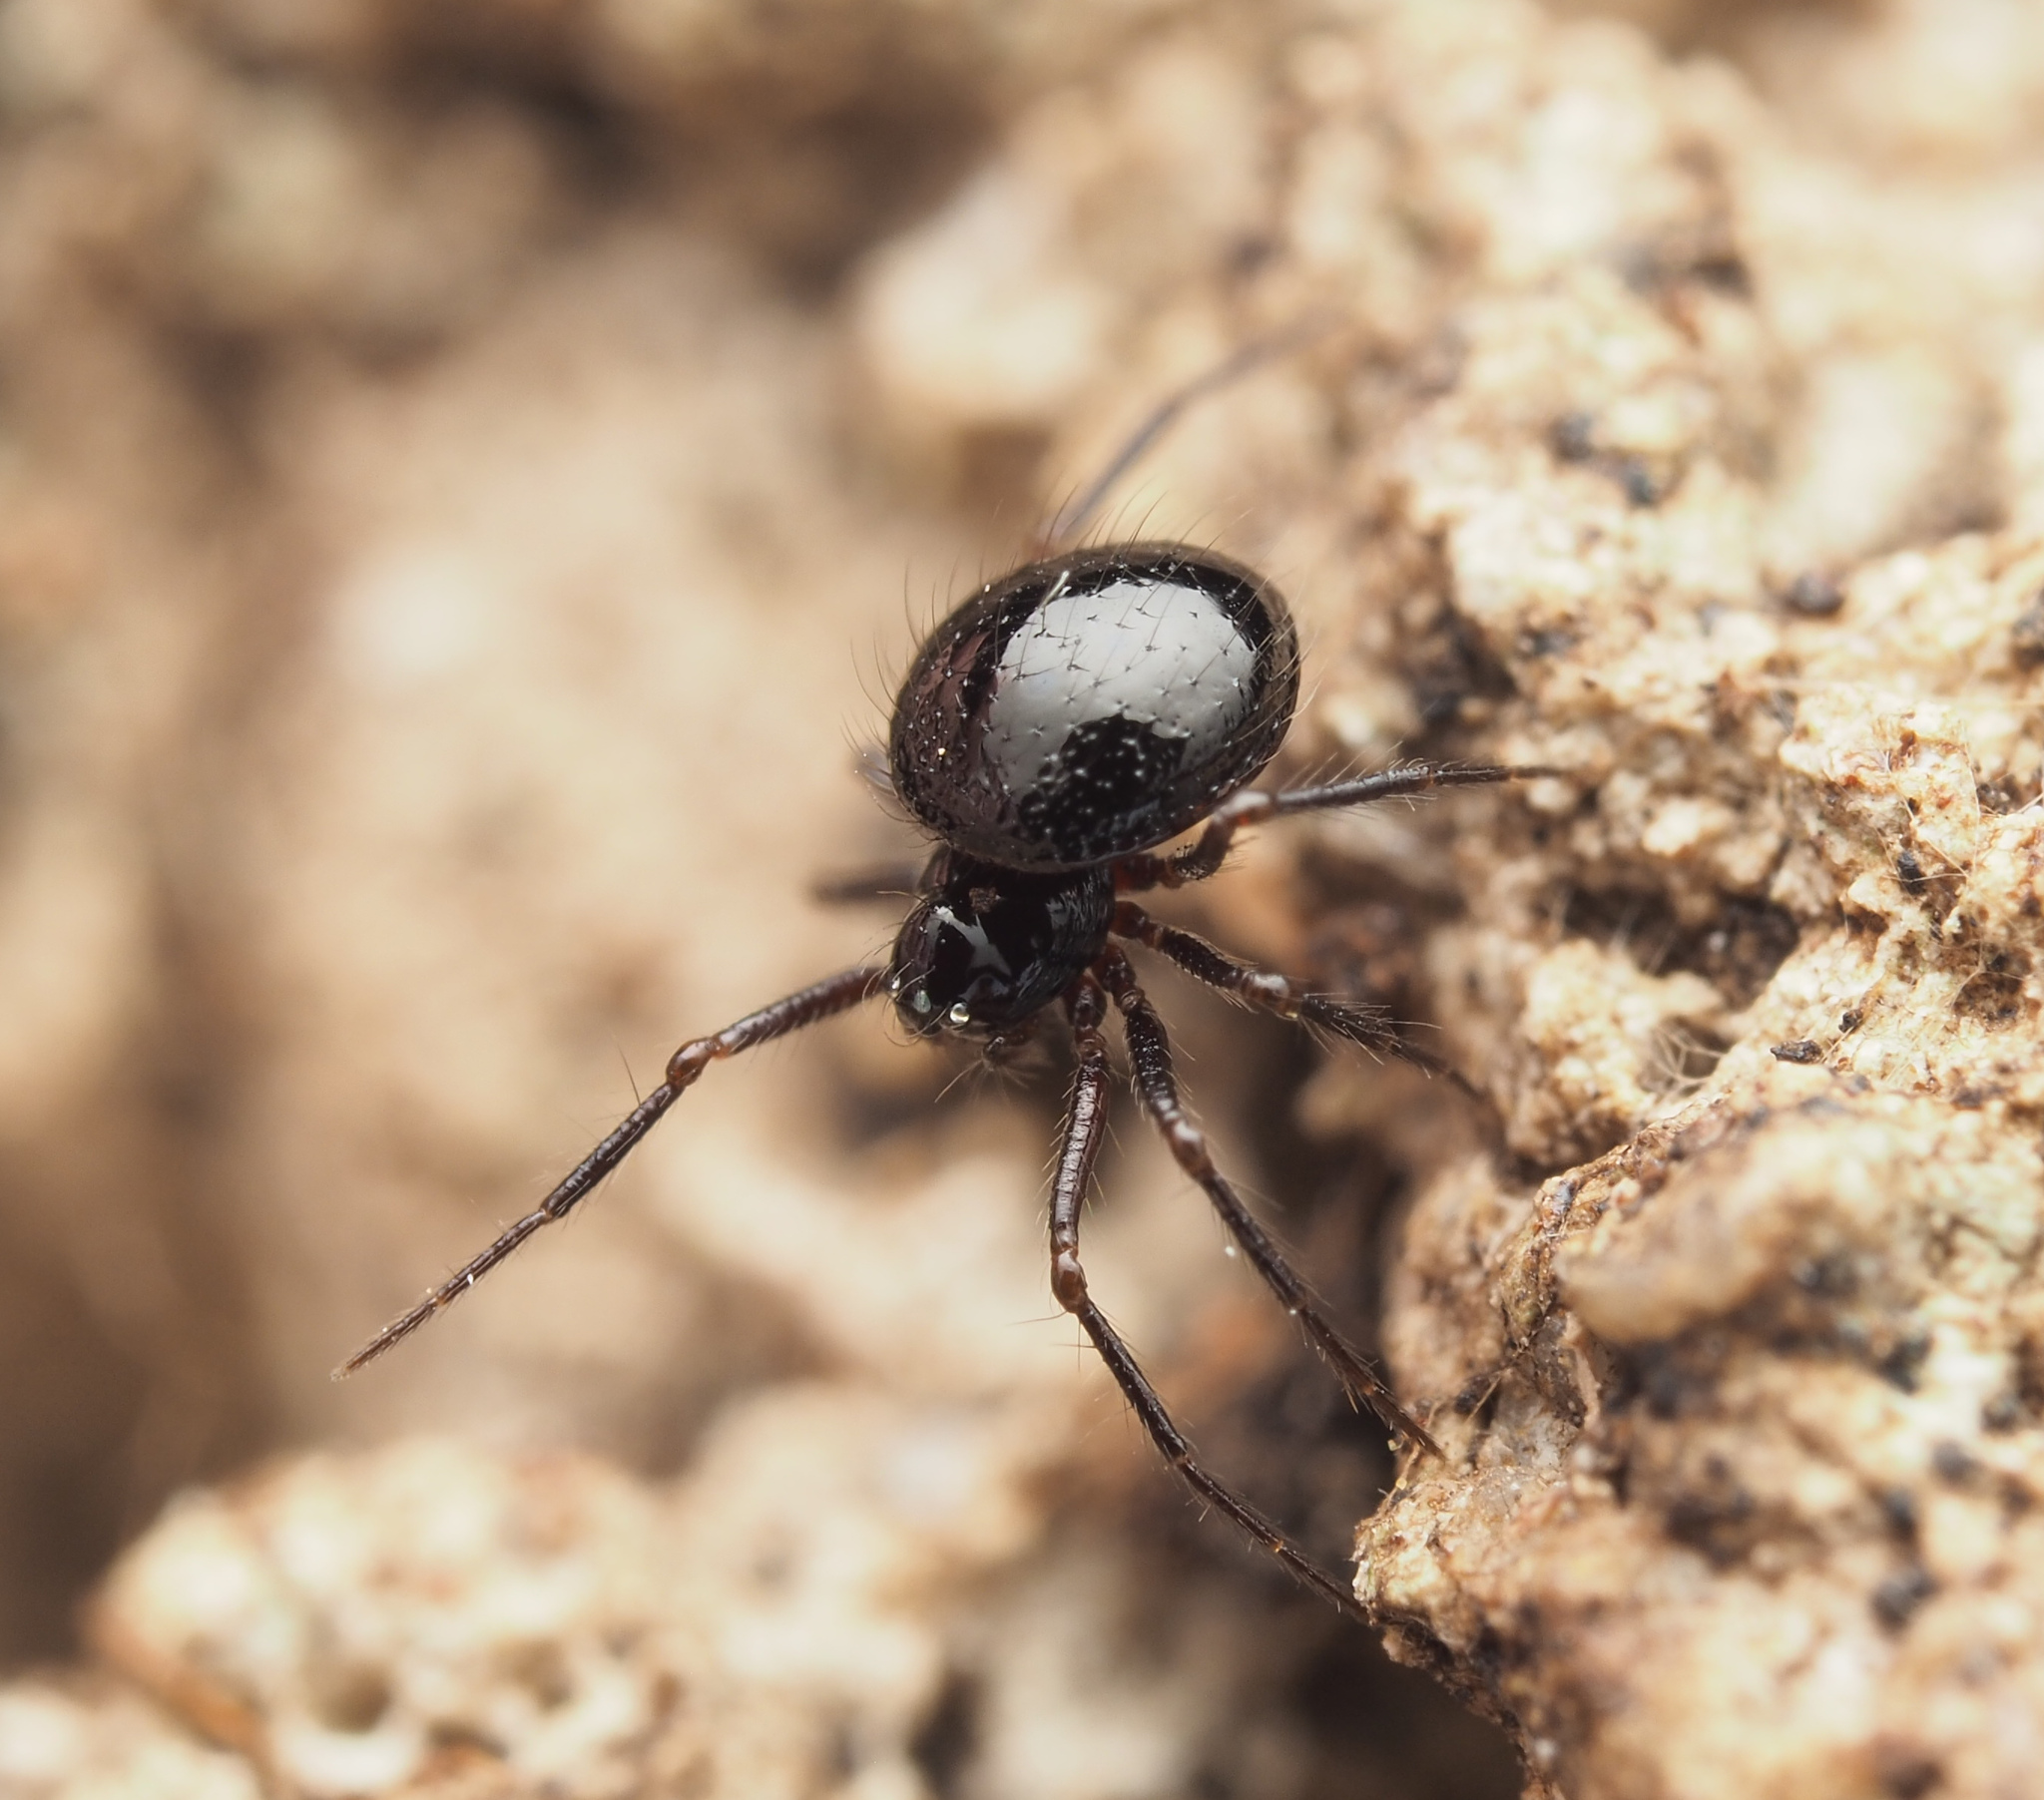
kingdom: Animalia
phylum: Arthropoda
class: Arachnida
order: Araneae
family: Cyatholipidae
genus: Matilda
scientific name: Matilda australia
